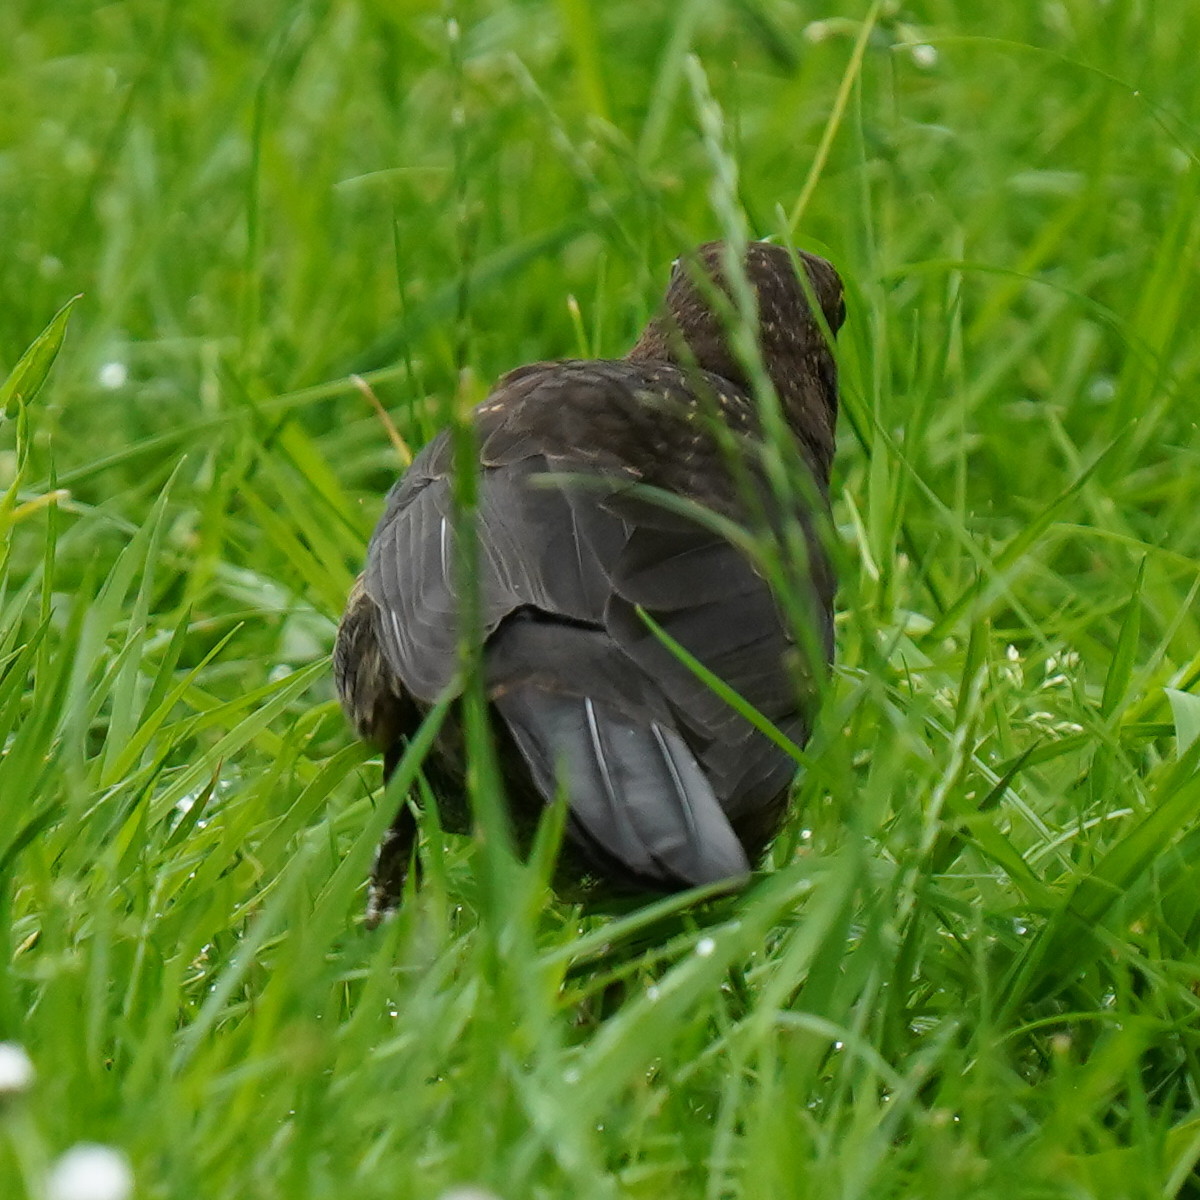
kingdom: Animalia
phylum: Chordata
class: Aves
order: Passeriformes
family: Turdidae
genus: Turdus
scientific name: Turdus merula
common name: Common blackbird
